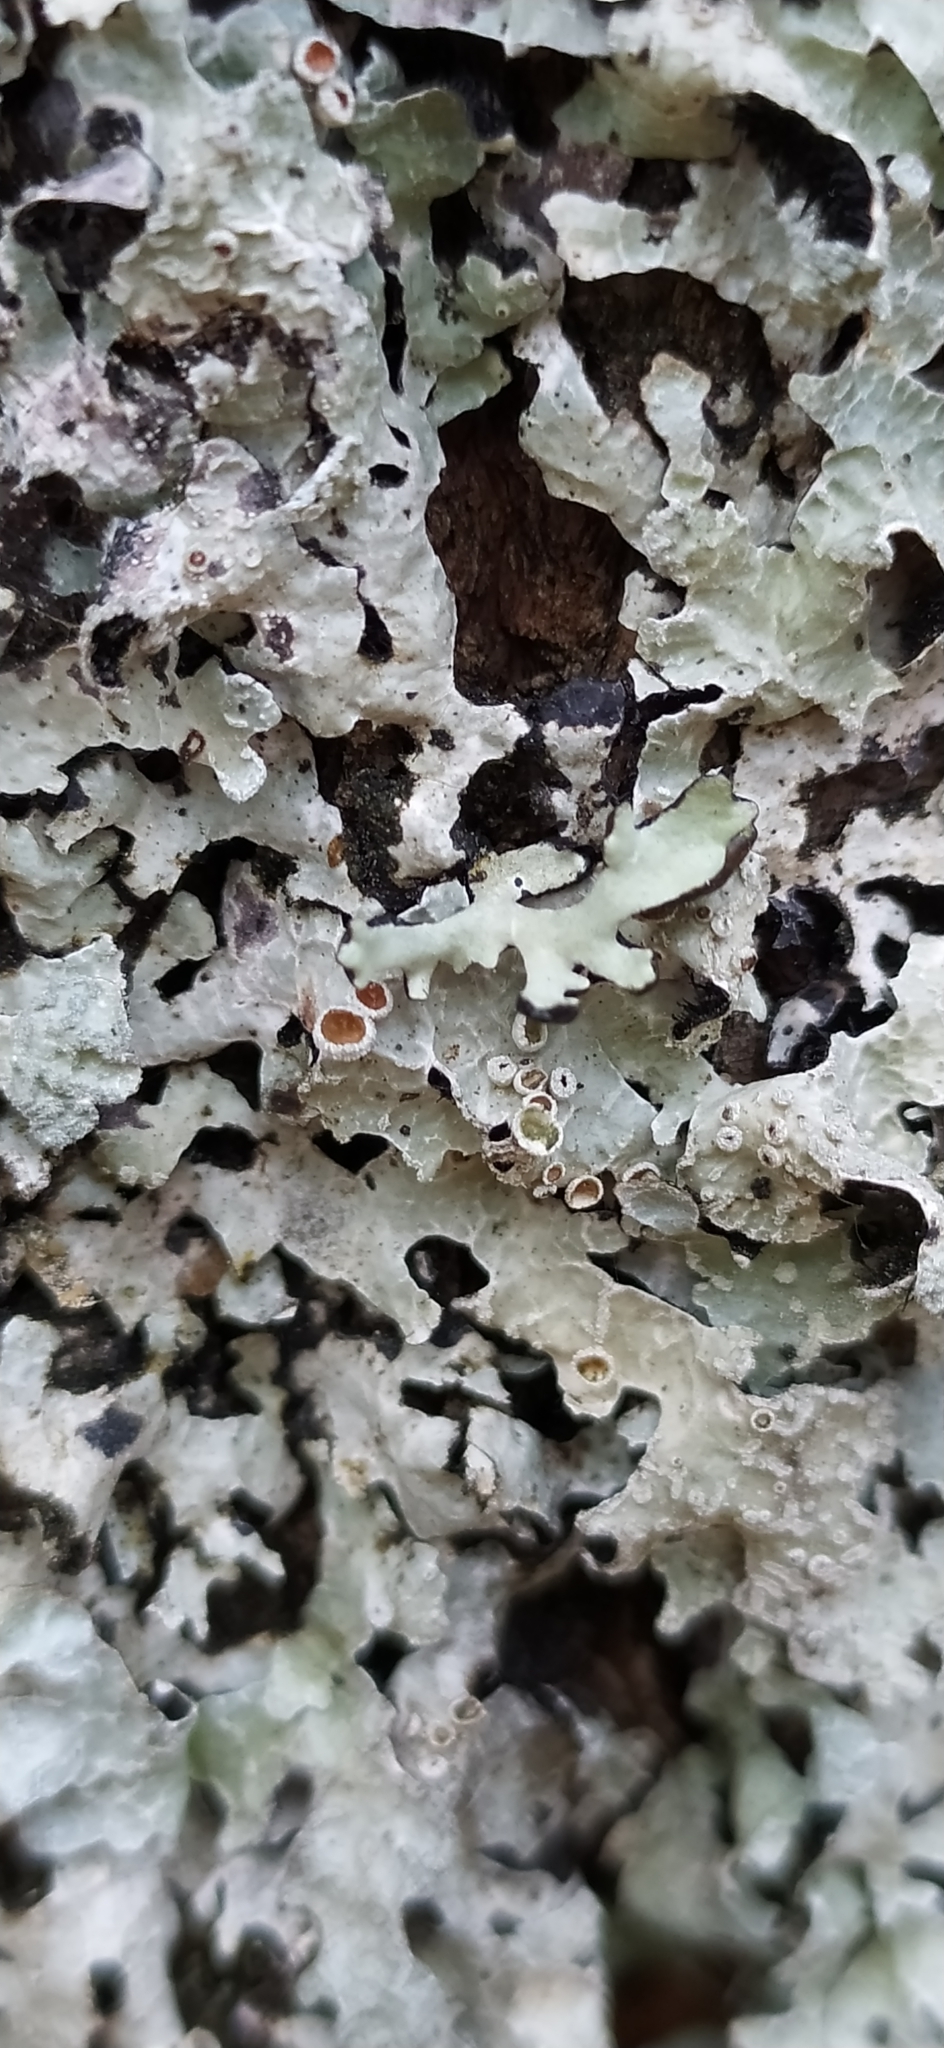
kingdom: Fungi
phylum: Ascomycota
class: Lecanoromycetes
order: Lecanorales
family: Parmeliaceae
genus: Parmelia
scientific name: Parmelia sulcata
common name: Netted shield lichen
